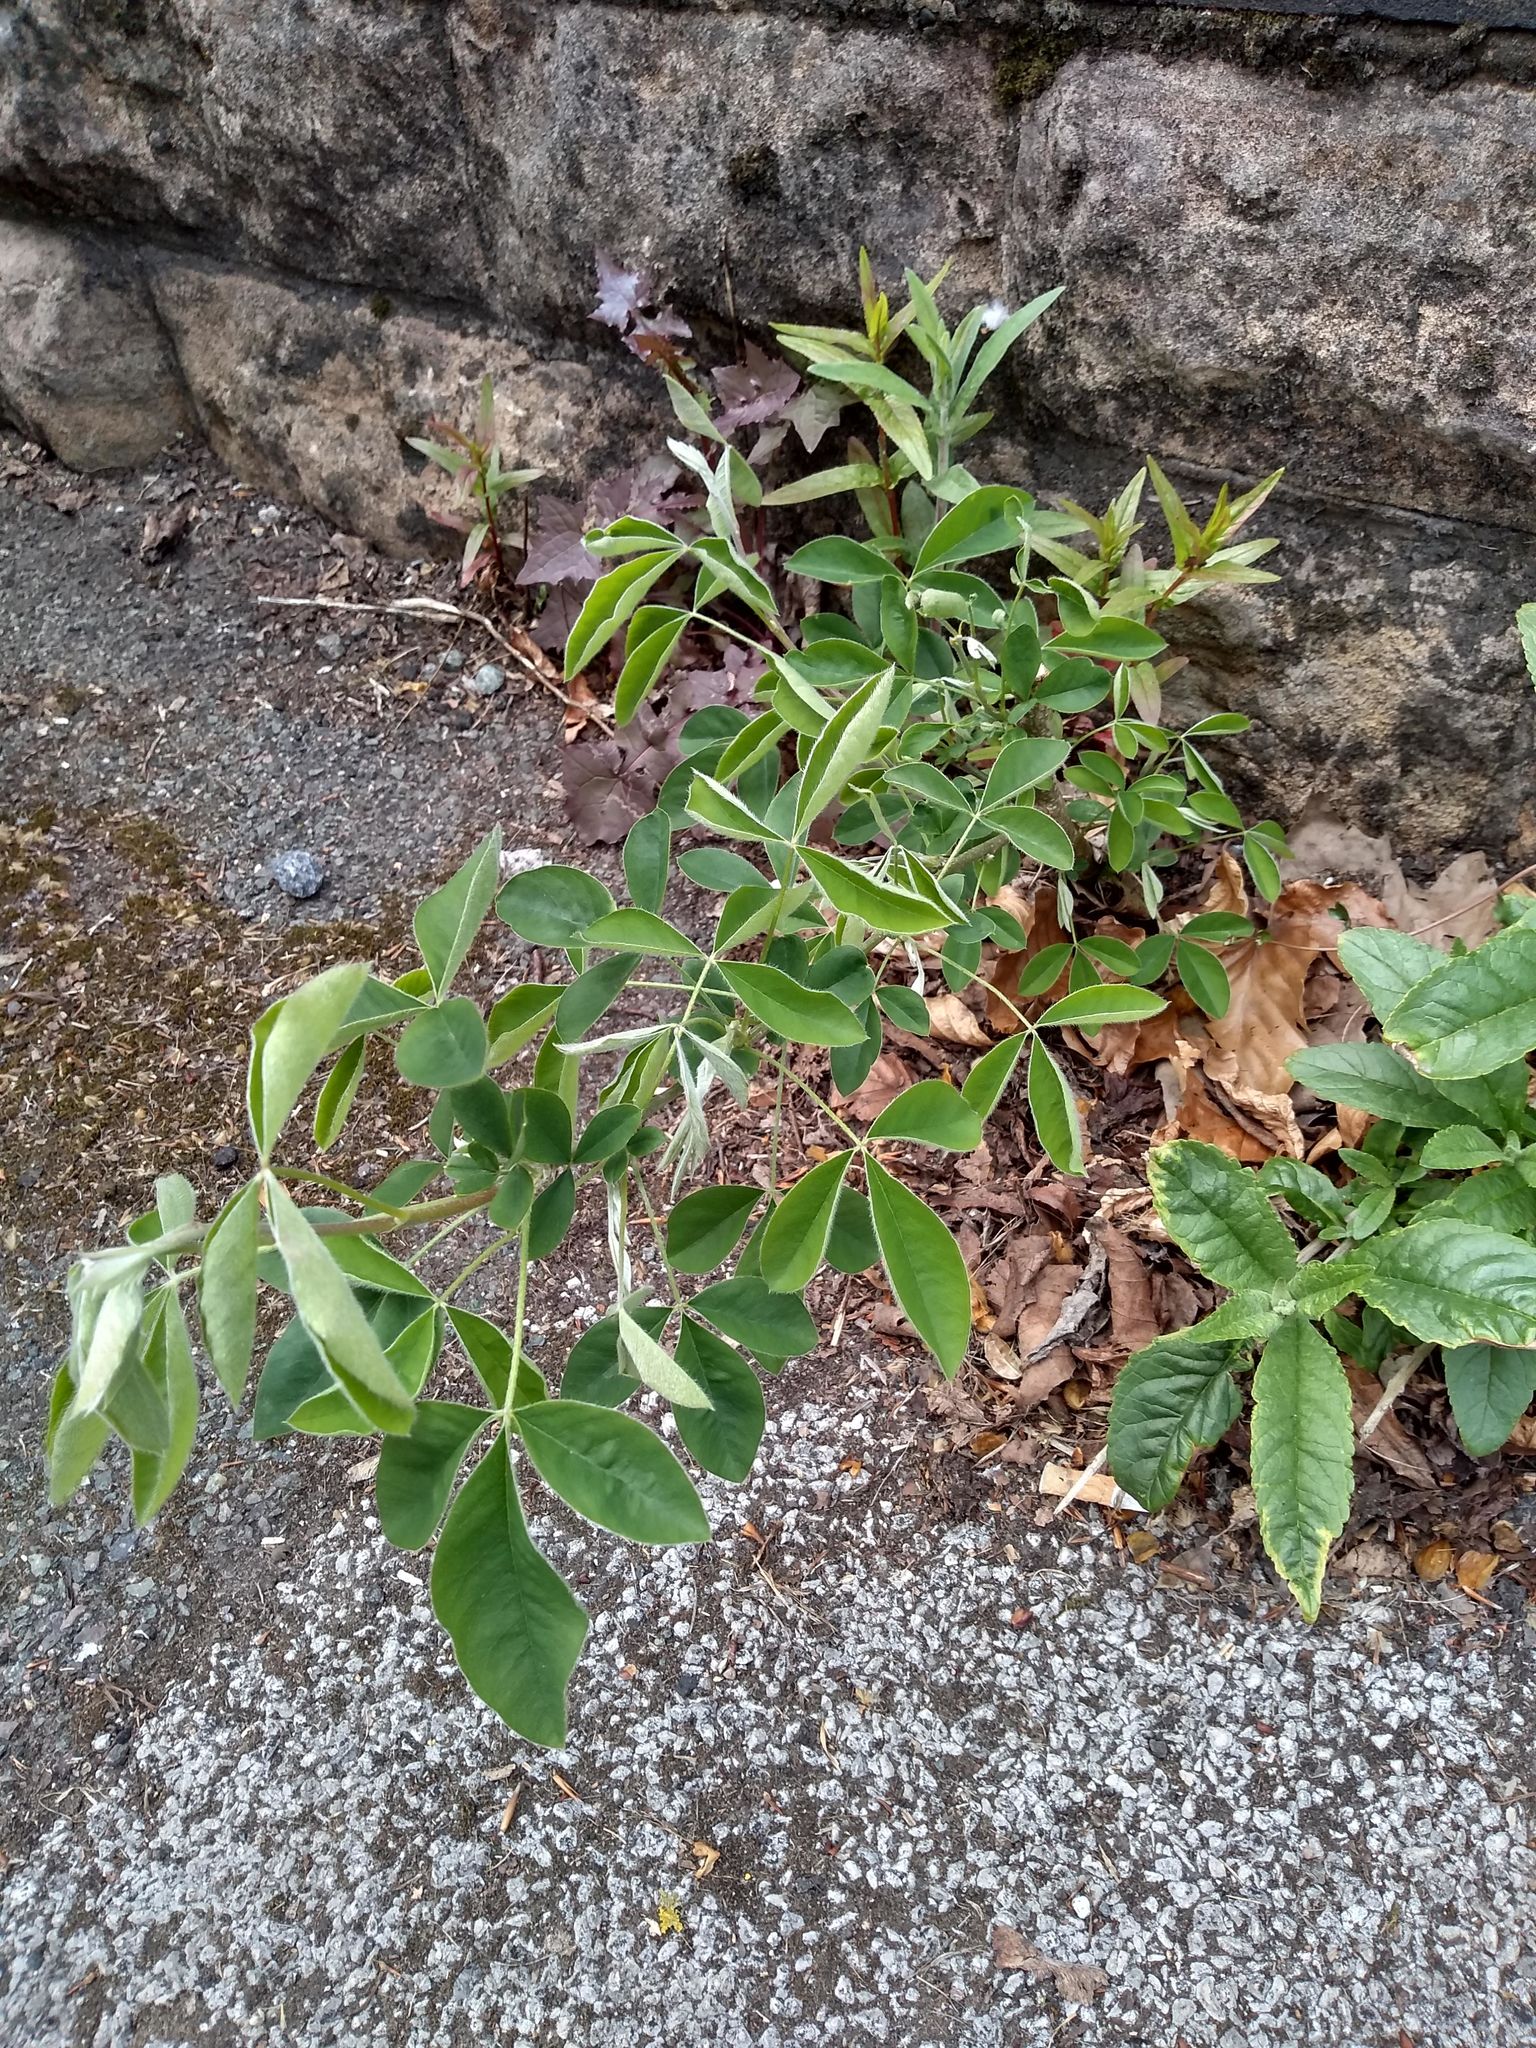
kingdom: Plantae
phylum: Tracheophyta
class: Magnoliopsida
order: Fabales
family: Fabaceae
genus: Laburnum
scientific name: Laburnum anagyroides
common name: Laburnum
